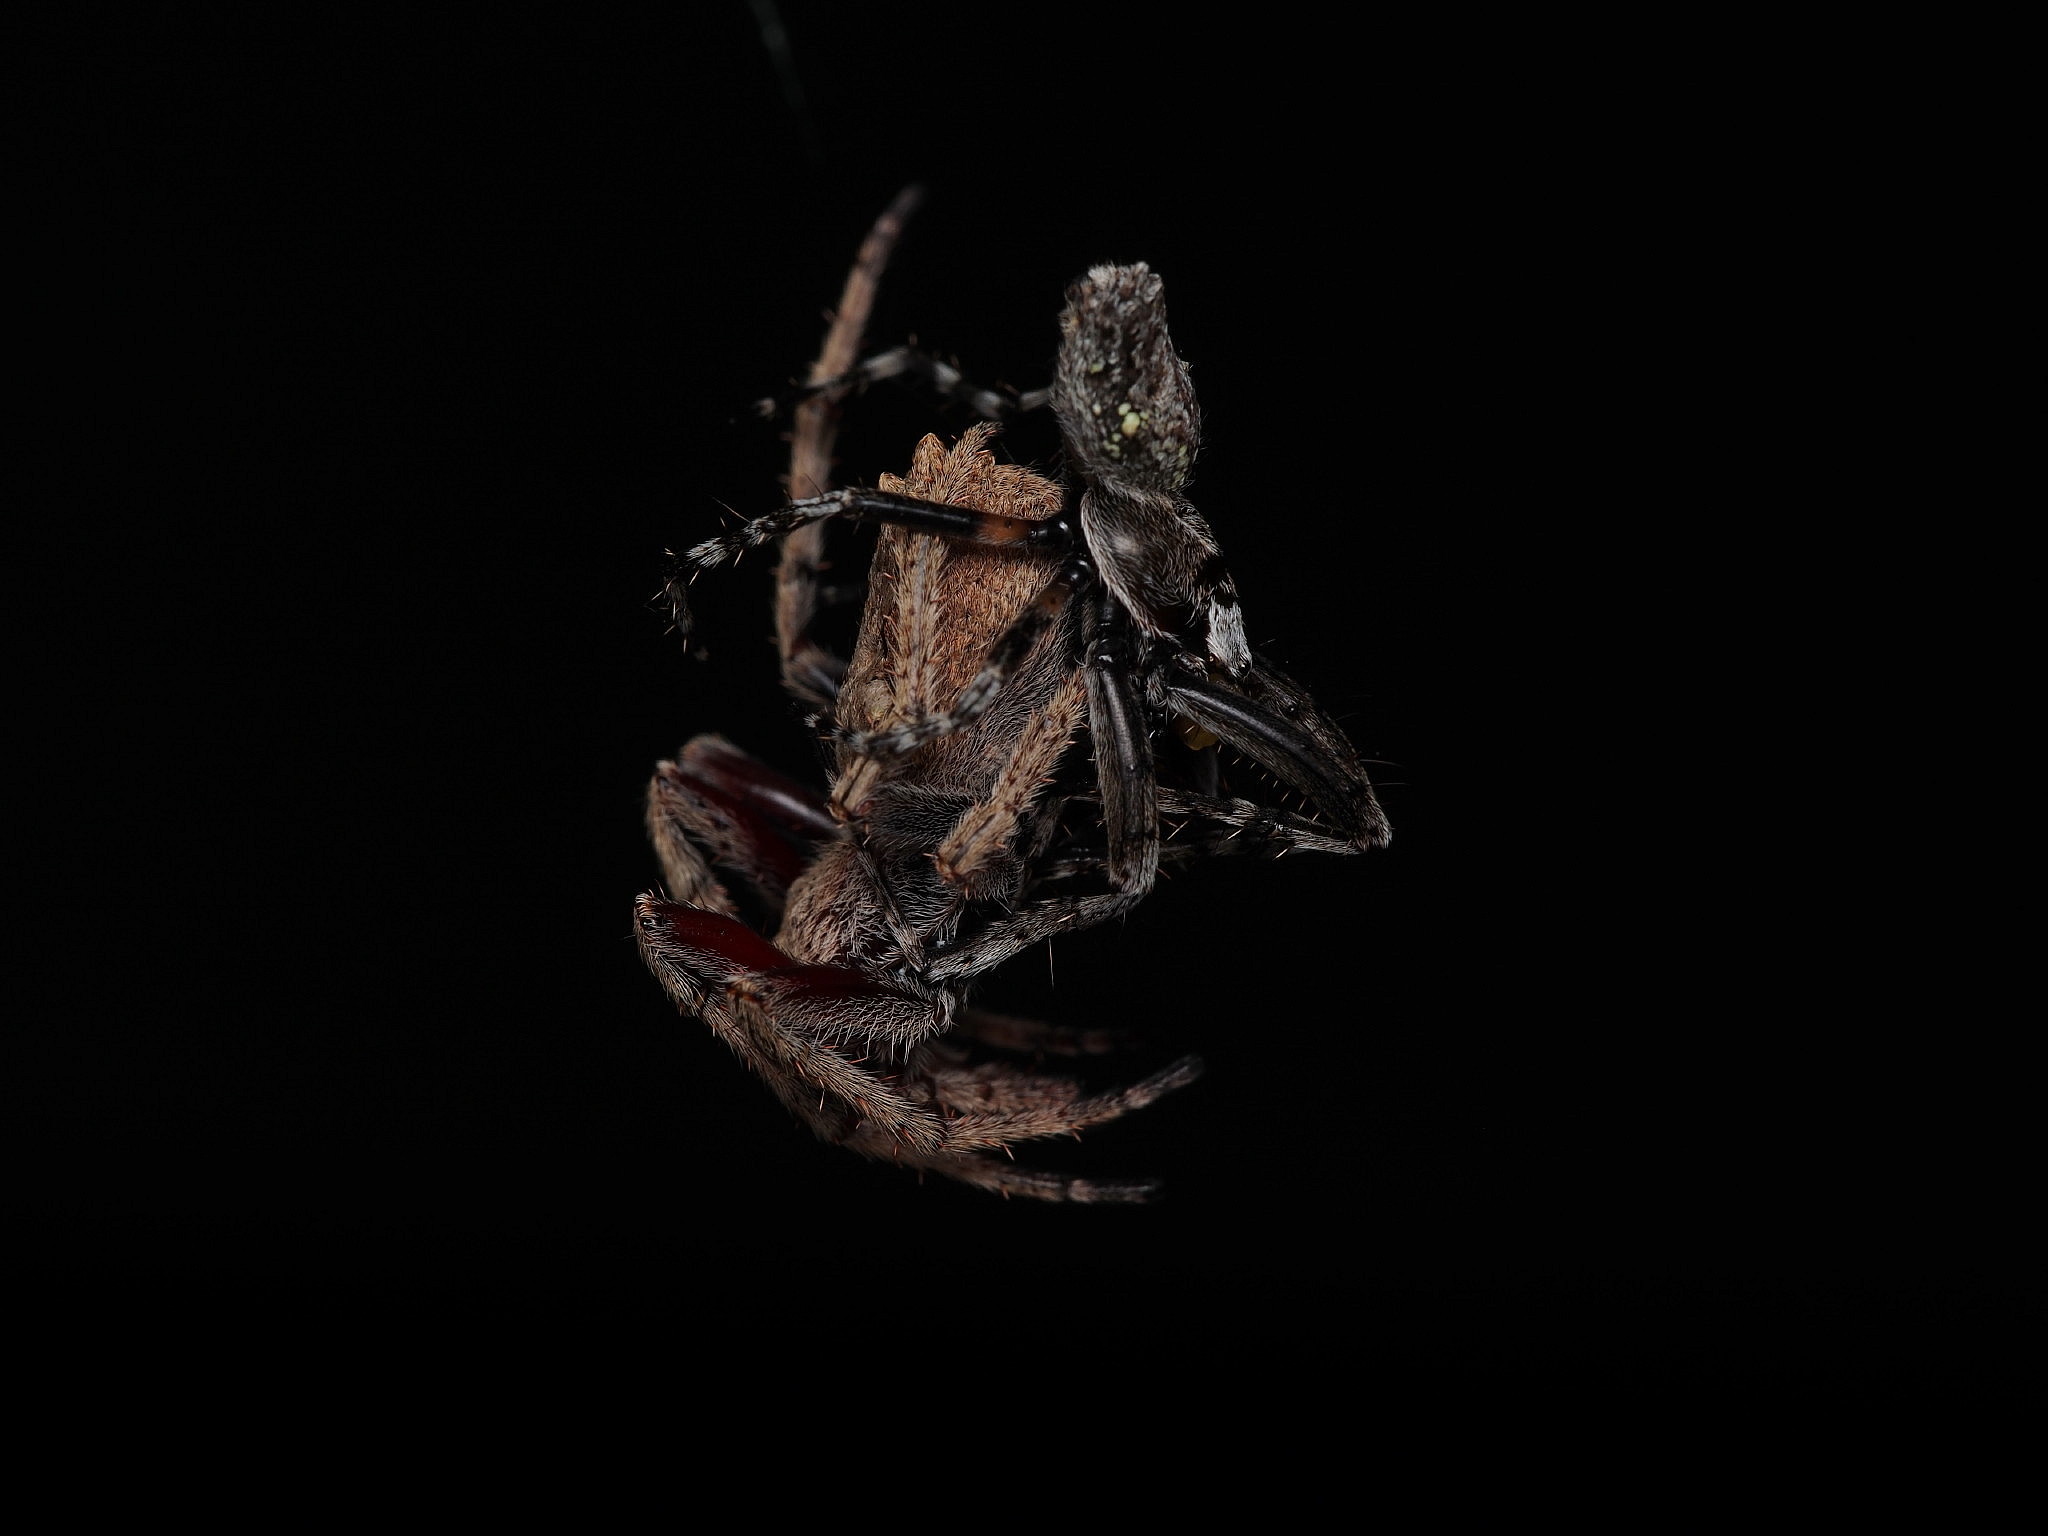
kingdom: Animalia
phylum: Arthropoda
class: Arachnida
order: Araneae
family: Araneidae
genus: Eriophora
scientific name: Eriophora pustulosa
